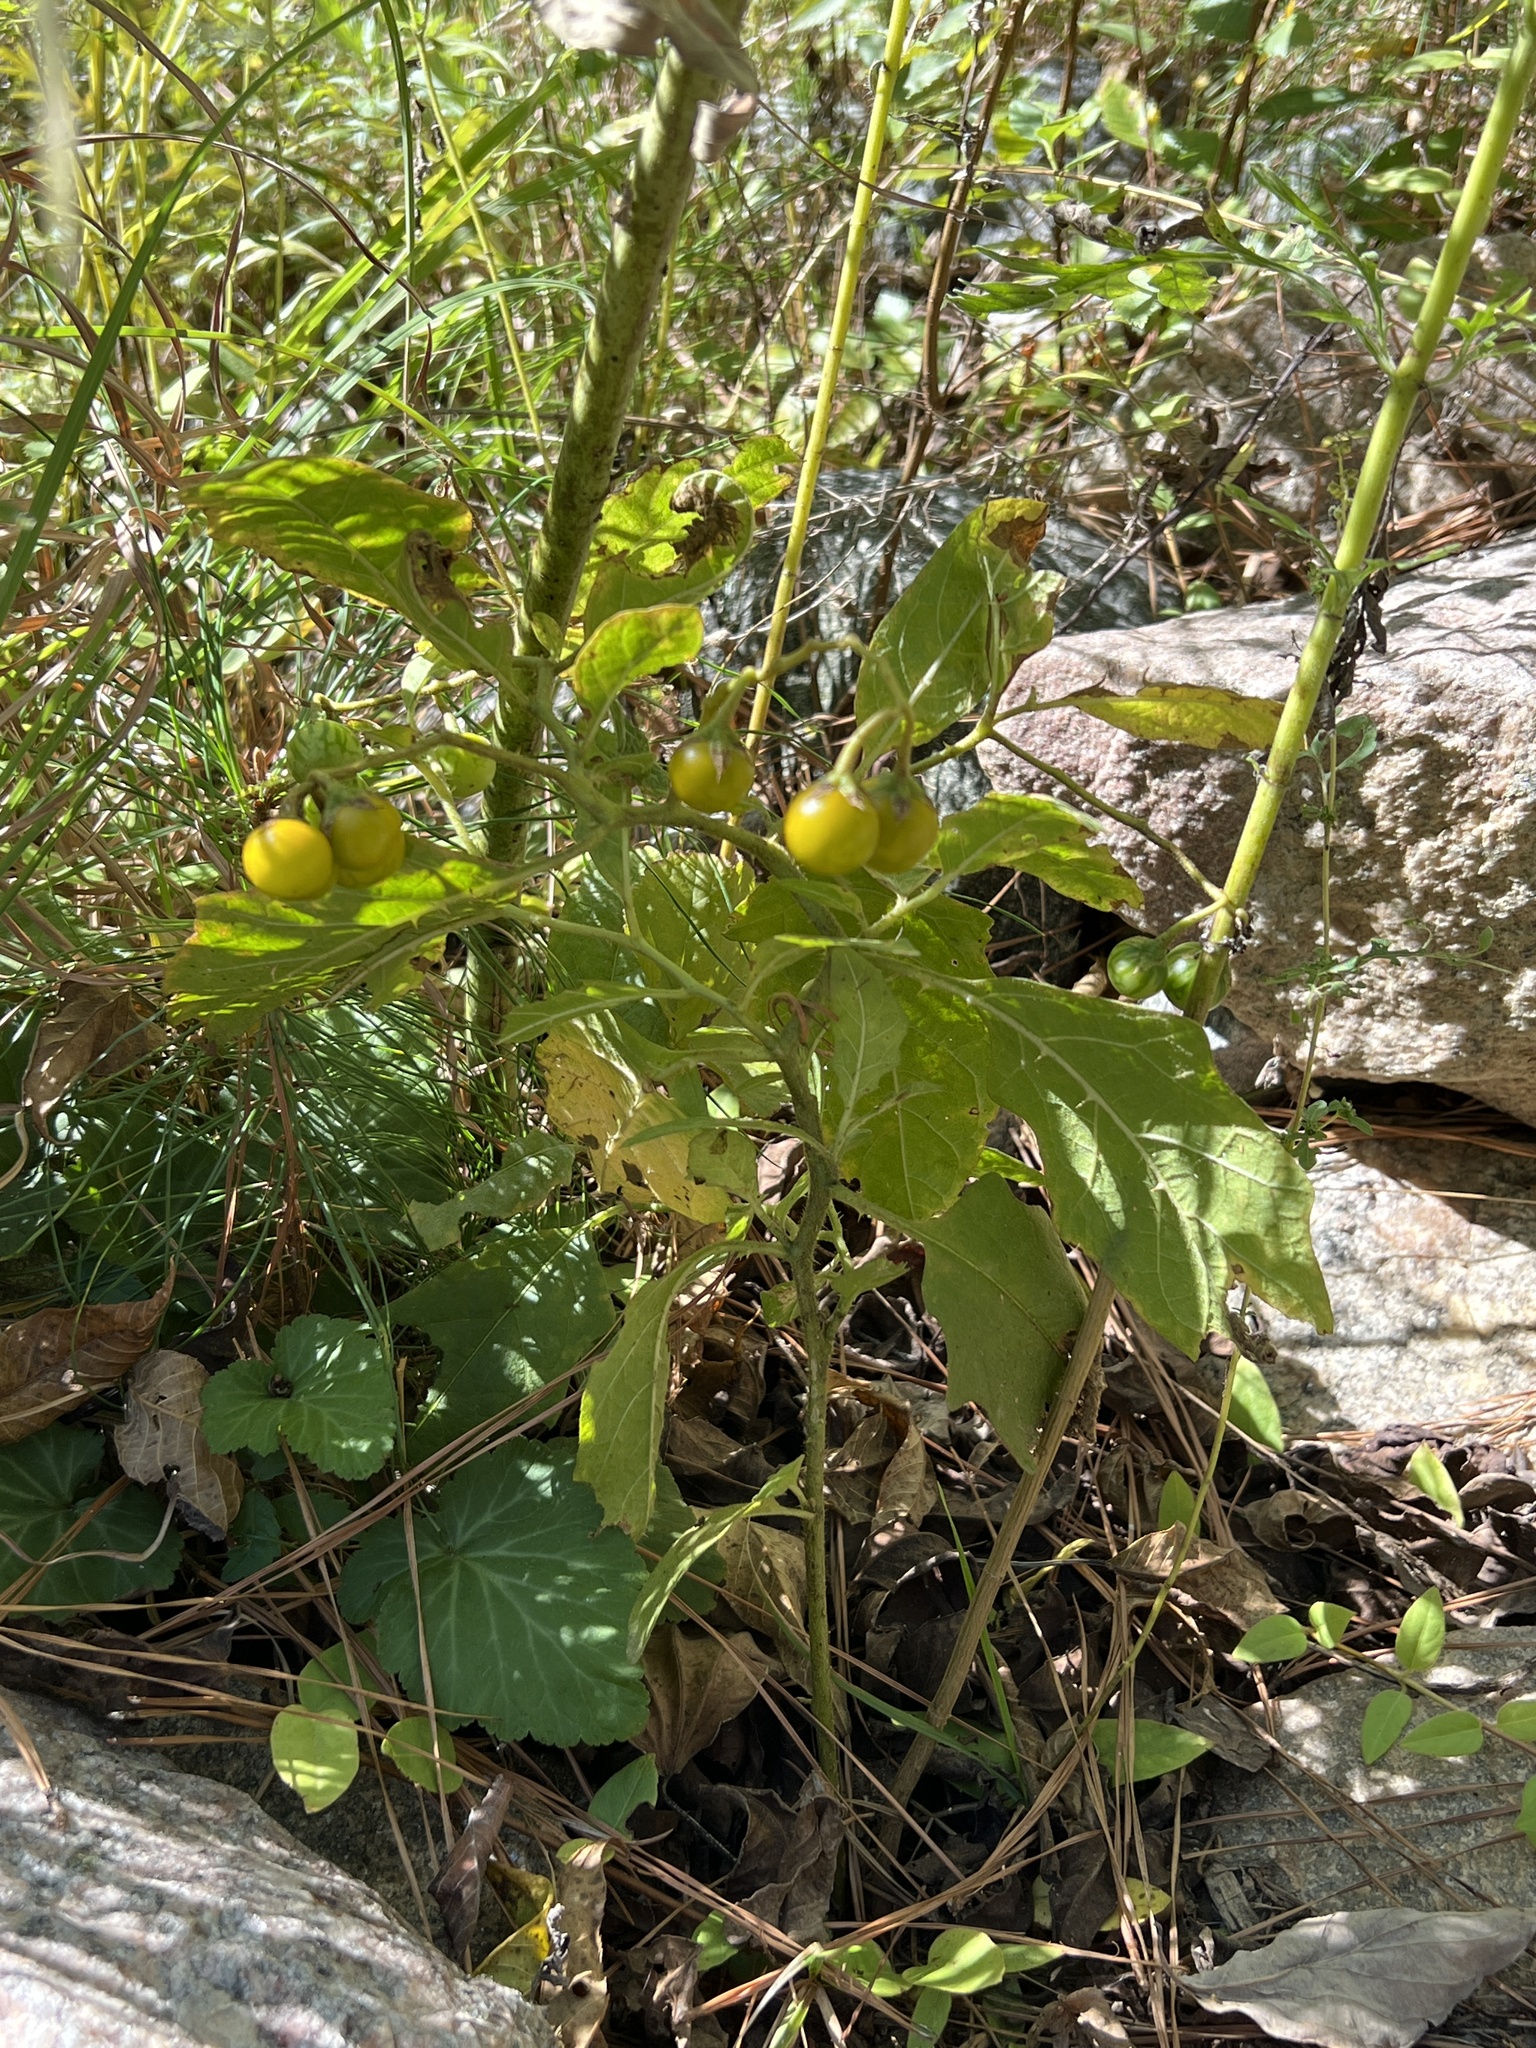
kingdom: Plantae
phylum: Tracheophyta
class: Magnoliopsida
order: Solanales
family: Solanaceae
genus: Solanum
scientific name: Solanum carolinense
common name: Horse-nettle
